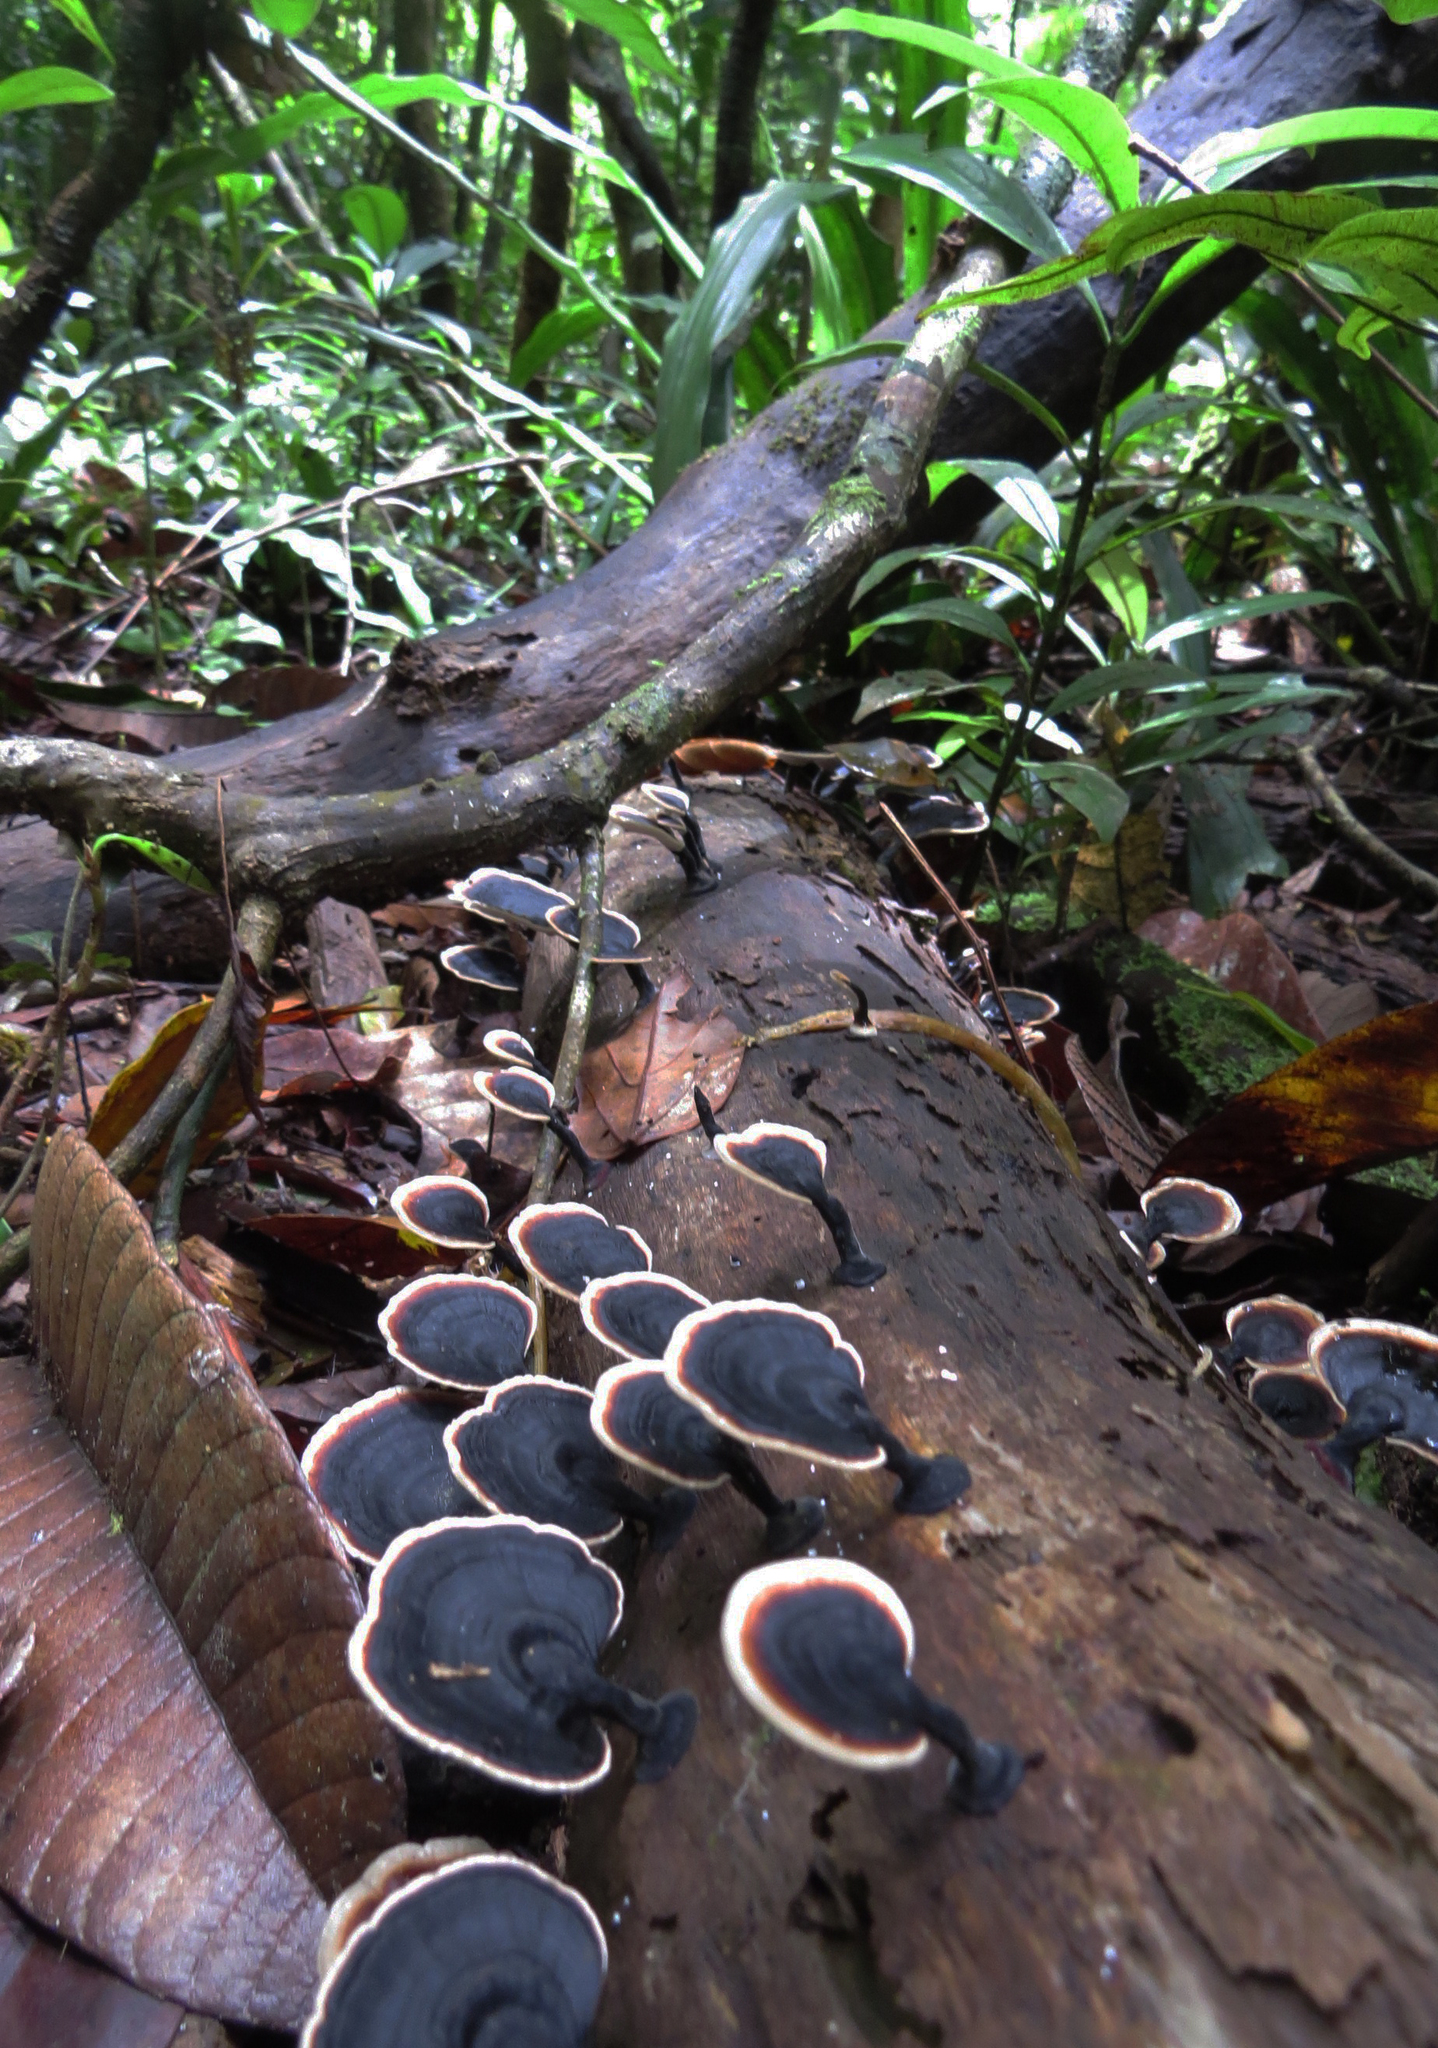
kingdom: Fungi
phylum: Basidiomycota
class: Agaricomycetes
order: Polyporales
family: Polyporaceae
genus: Microporus
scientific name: Microporus affinis
